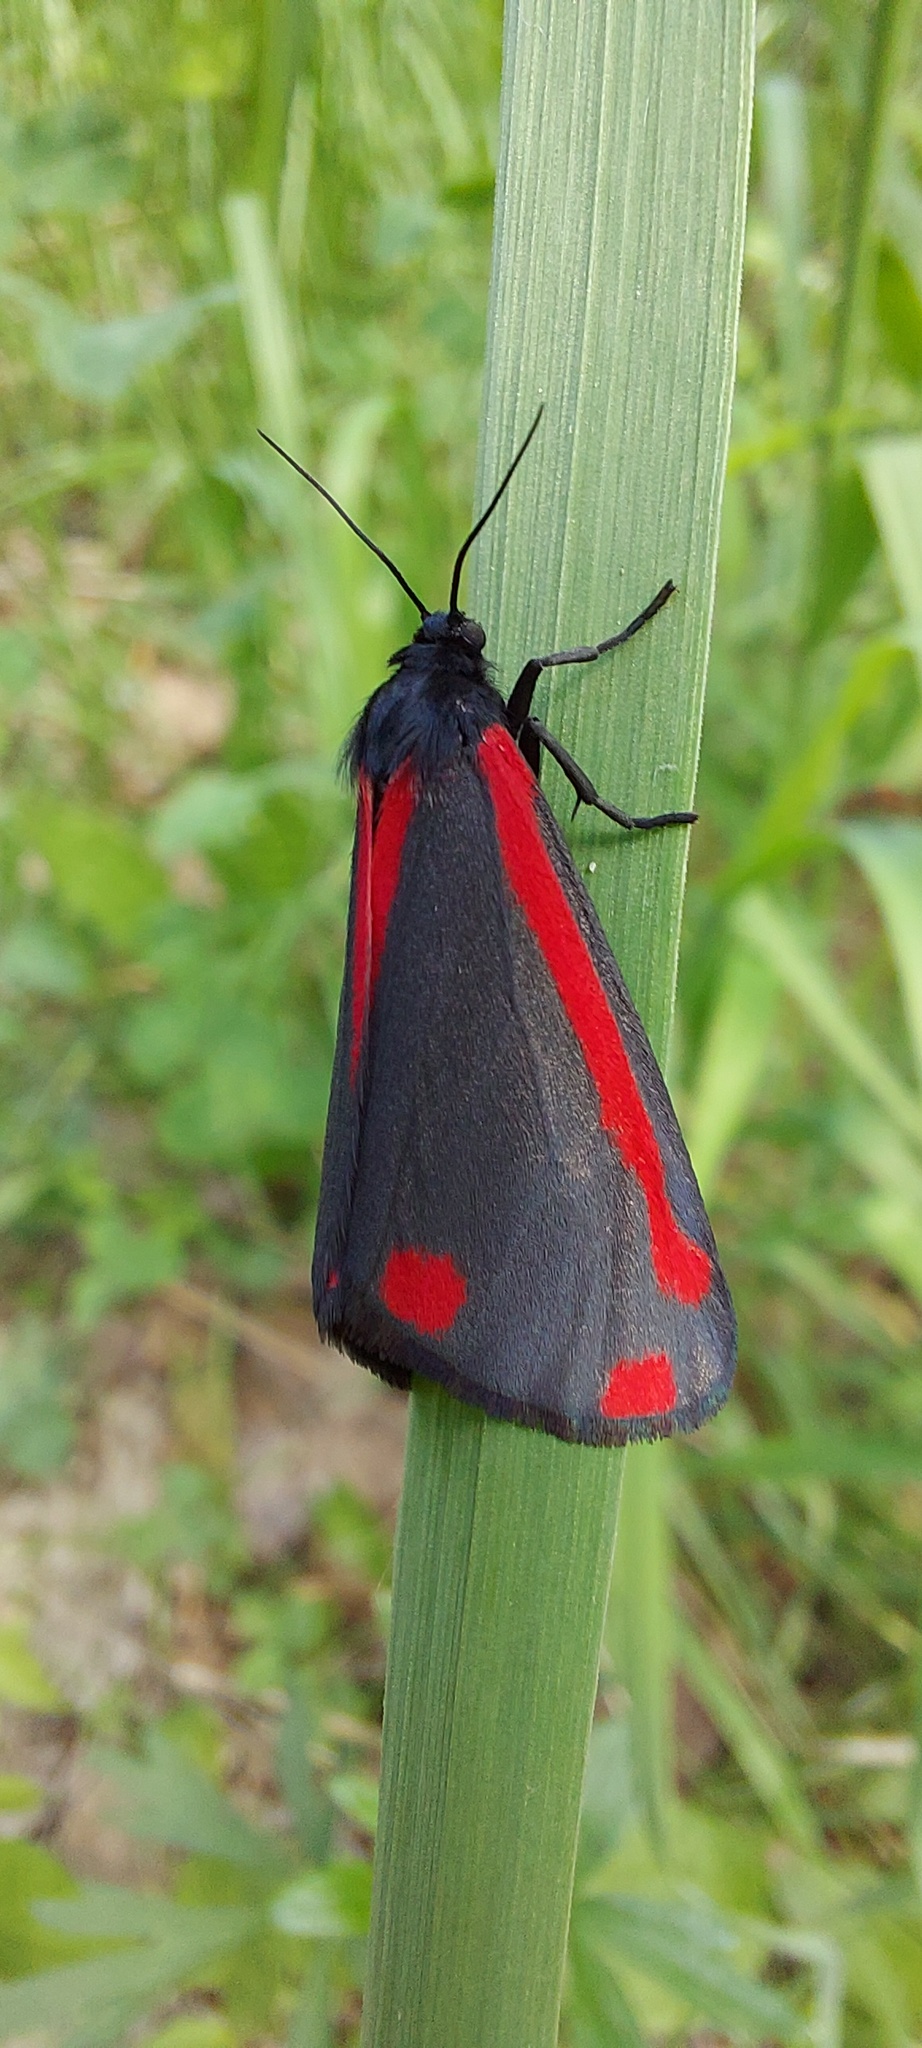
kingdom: Animalia
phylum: Arthropoda
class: Insecta
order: Lepidoptera
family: Erebidae
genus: Tyria
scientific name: Tyria jacobaeae
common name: Cinnabar
